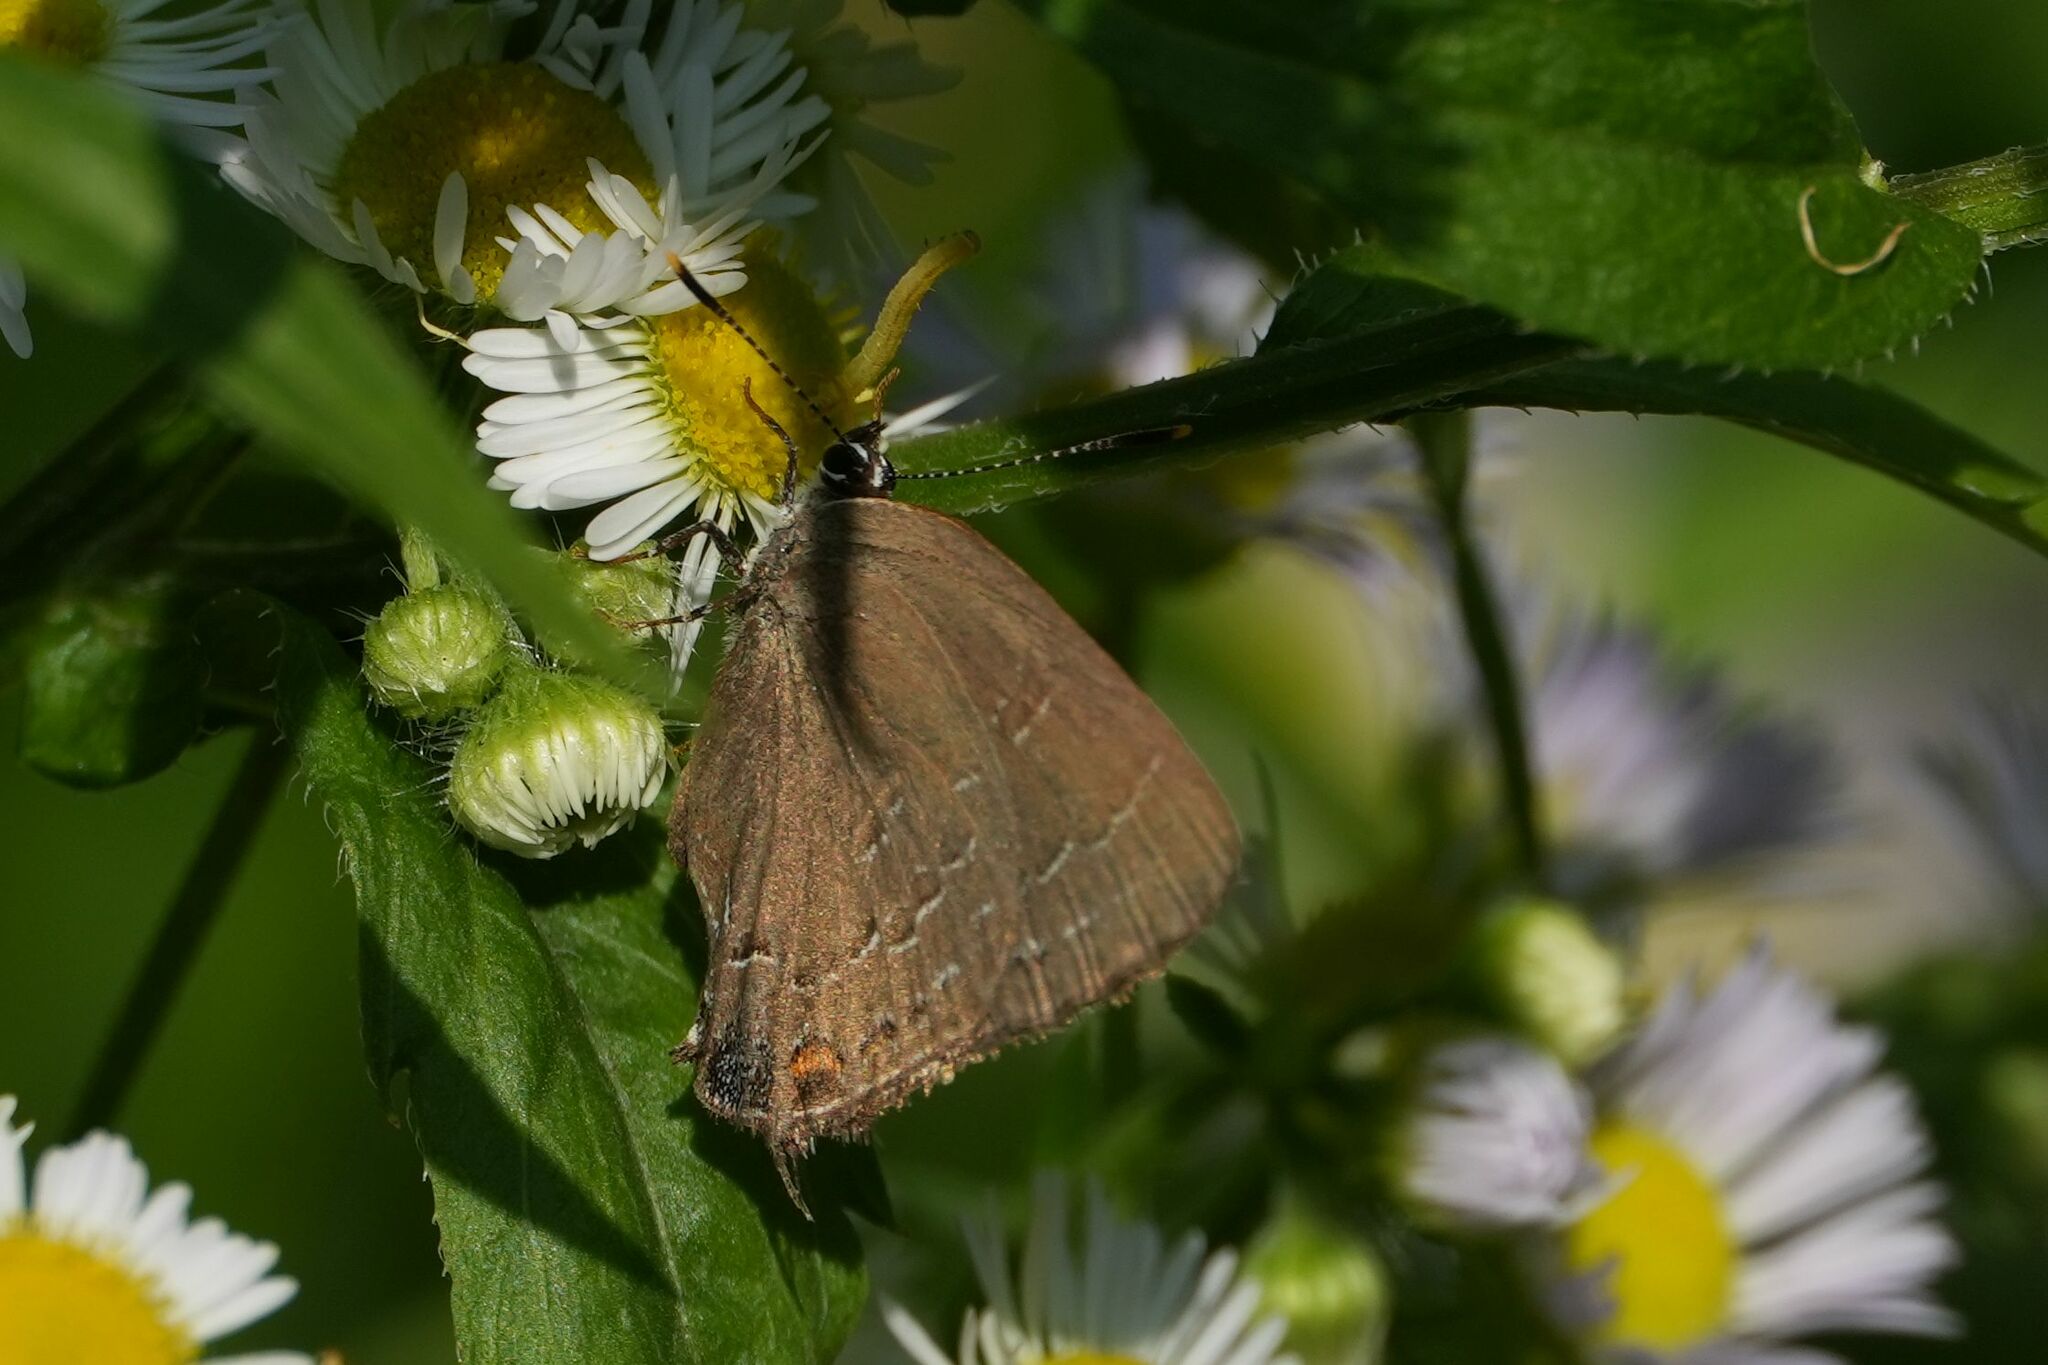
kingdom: Animalia
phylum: Arthropoda
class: Insecta
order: Lepidoptera
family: Lycaenidae
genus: Satyrium
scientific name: Satyrium calanus
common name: Banded hairstreak
